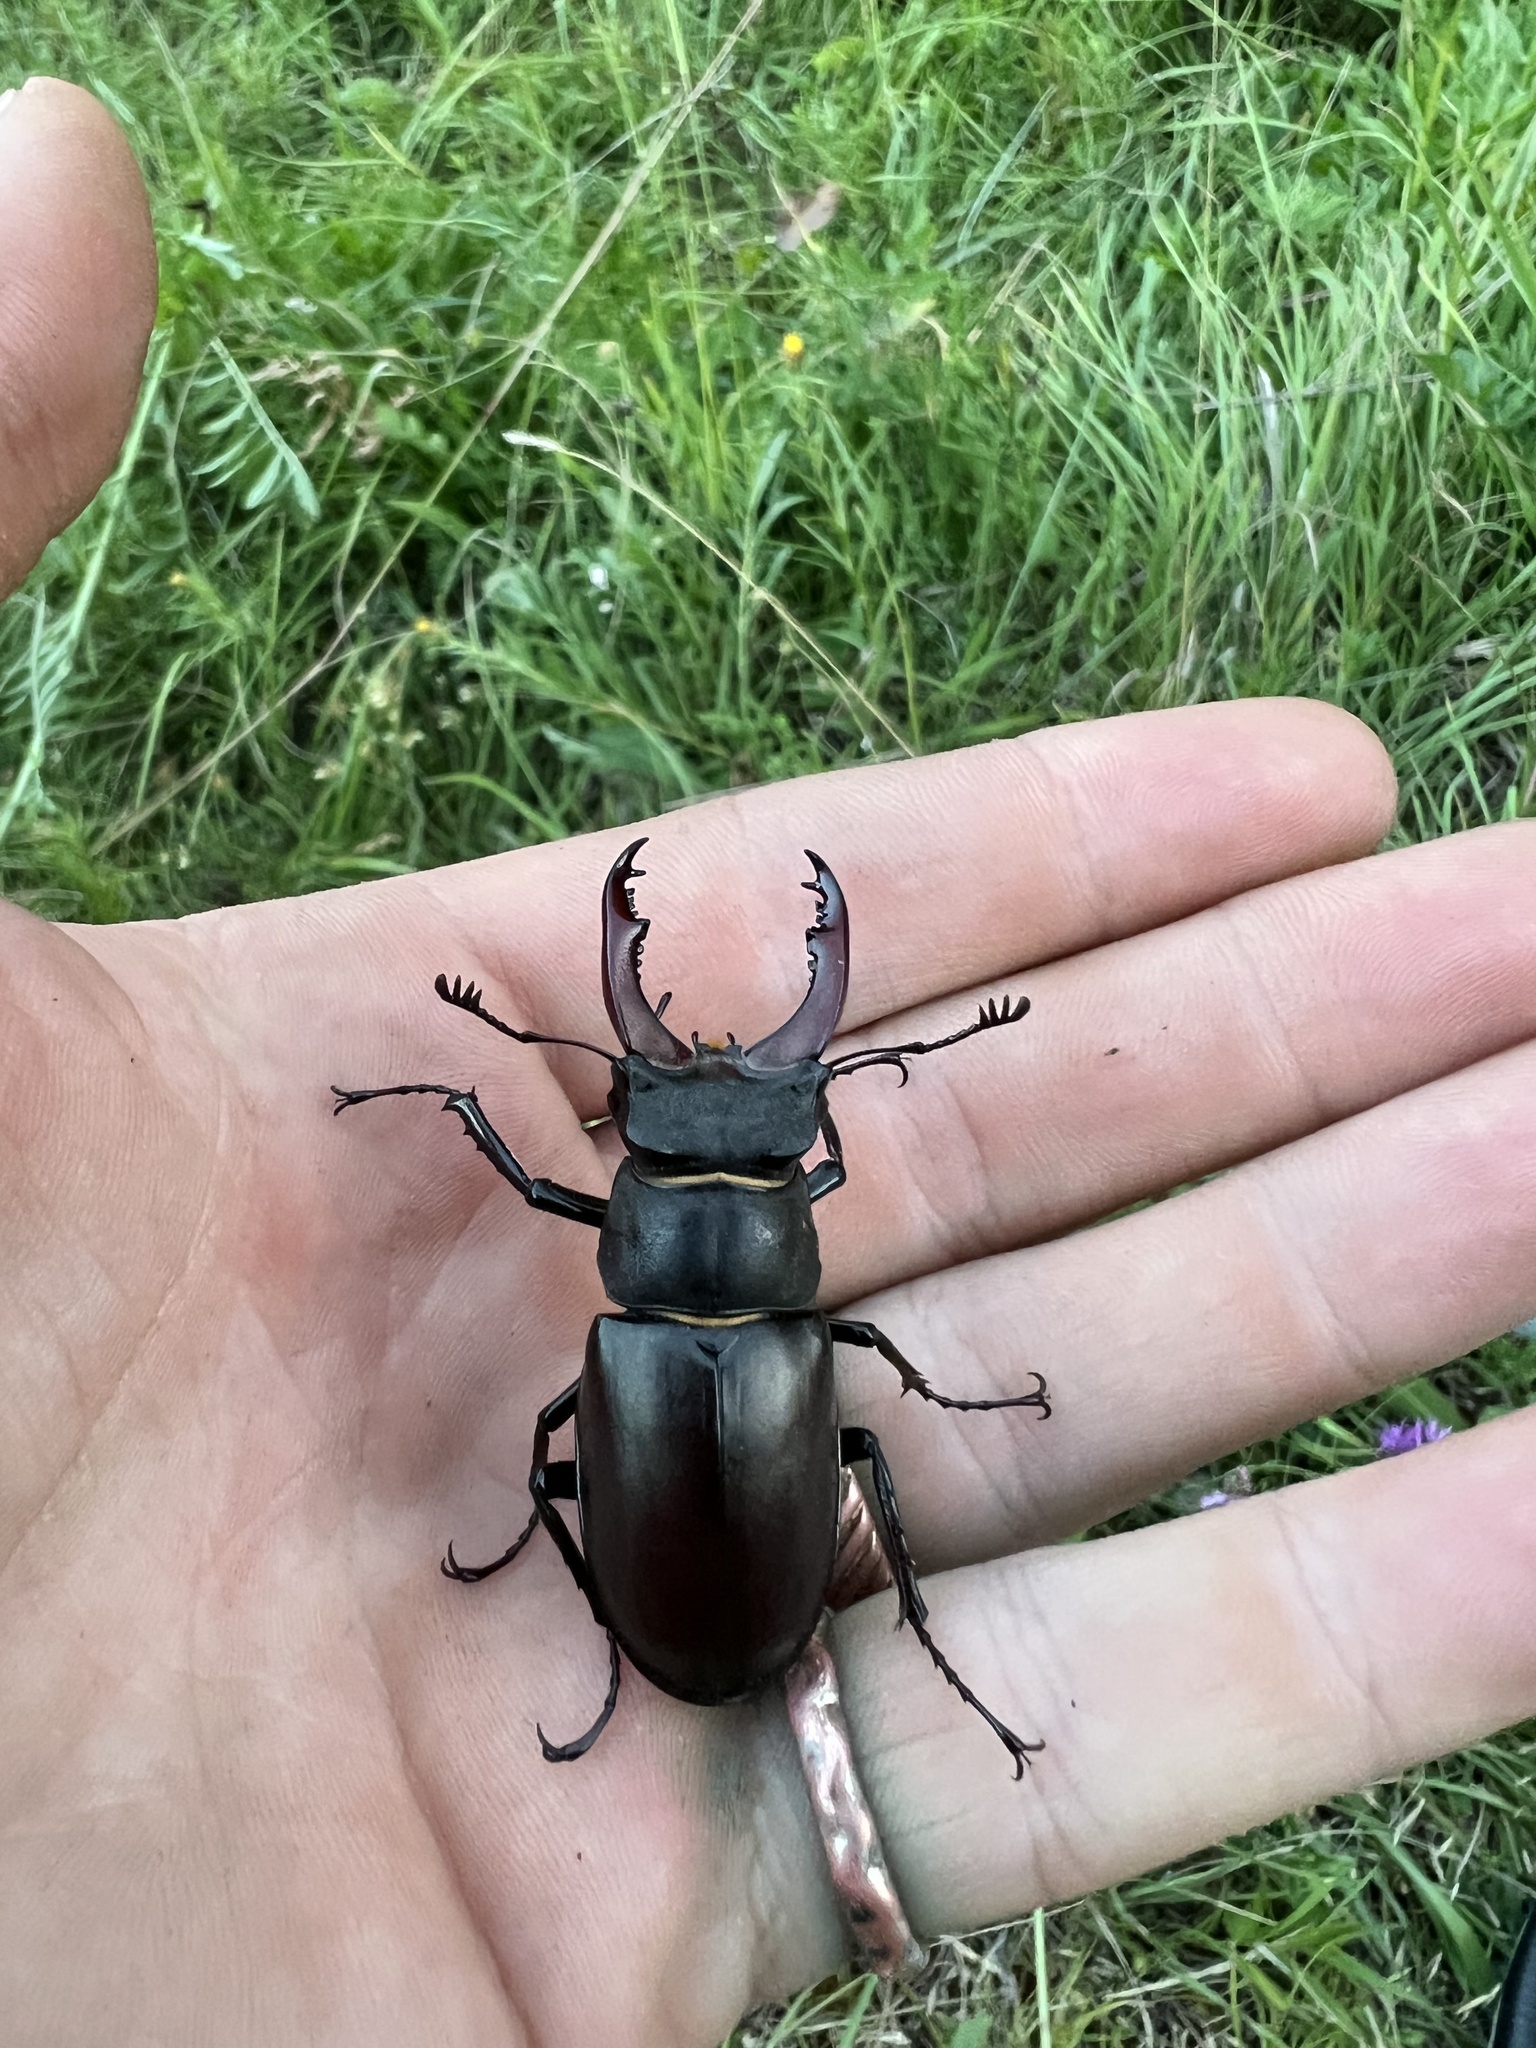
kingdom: Animalia
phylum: Arthropoda
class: Insecta
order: Coleoptera
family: Lucanidae
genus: Lucanus
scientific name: Lucanus cervus
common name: Stag beetle
